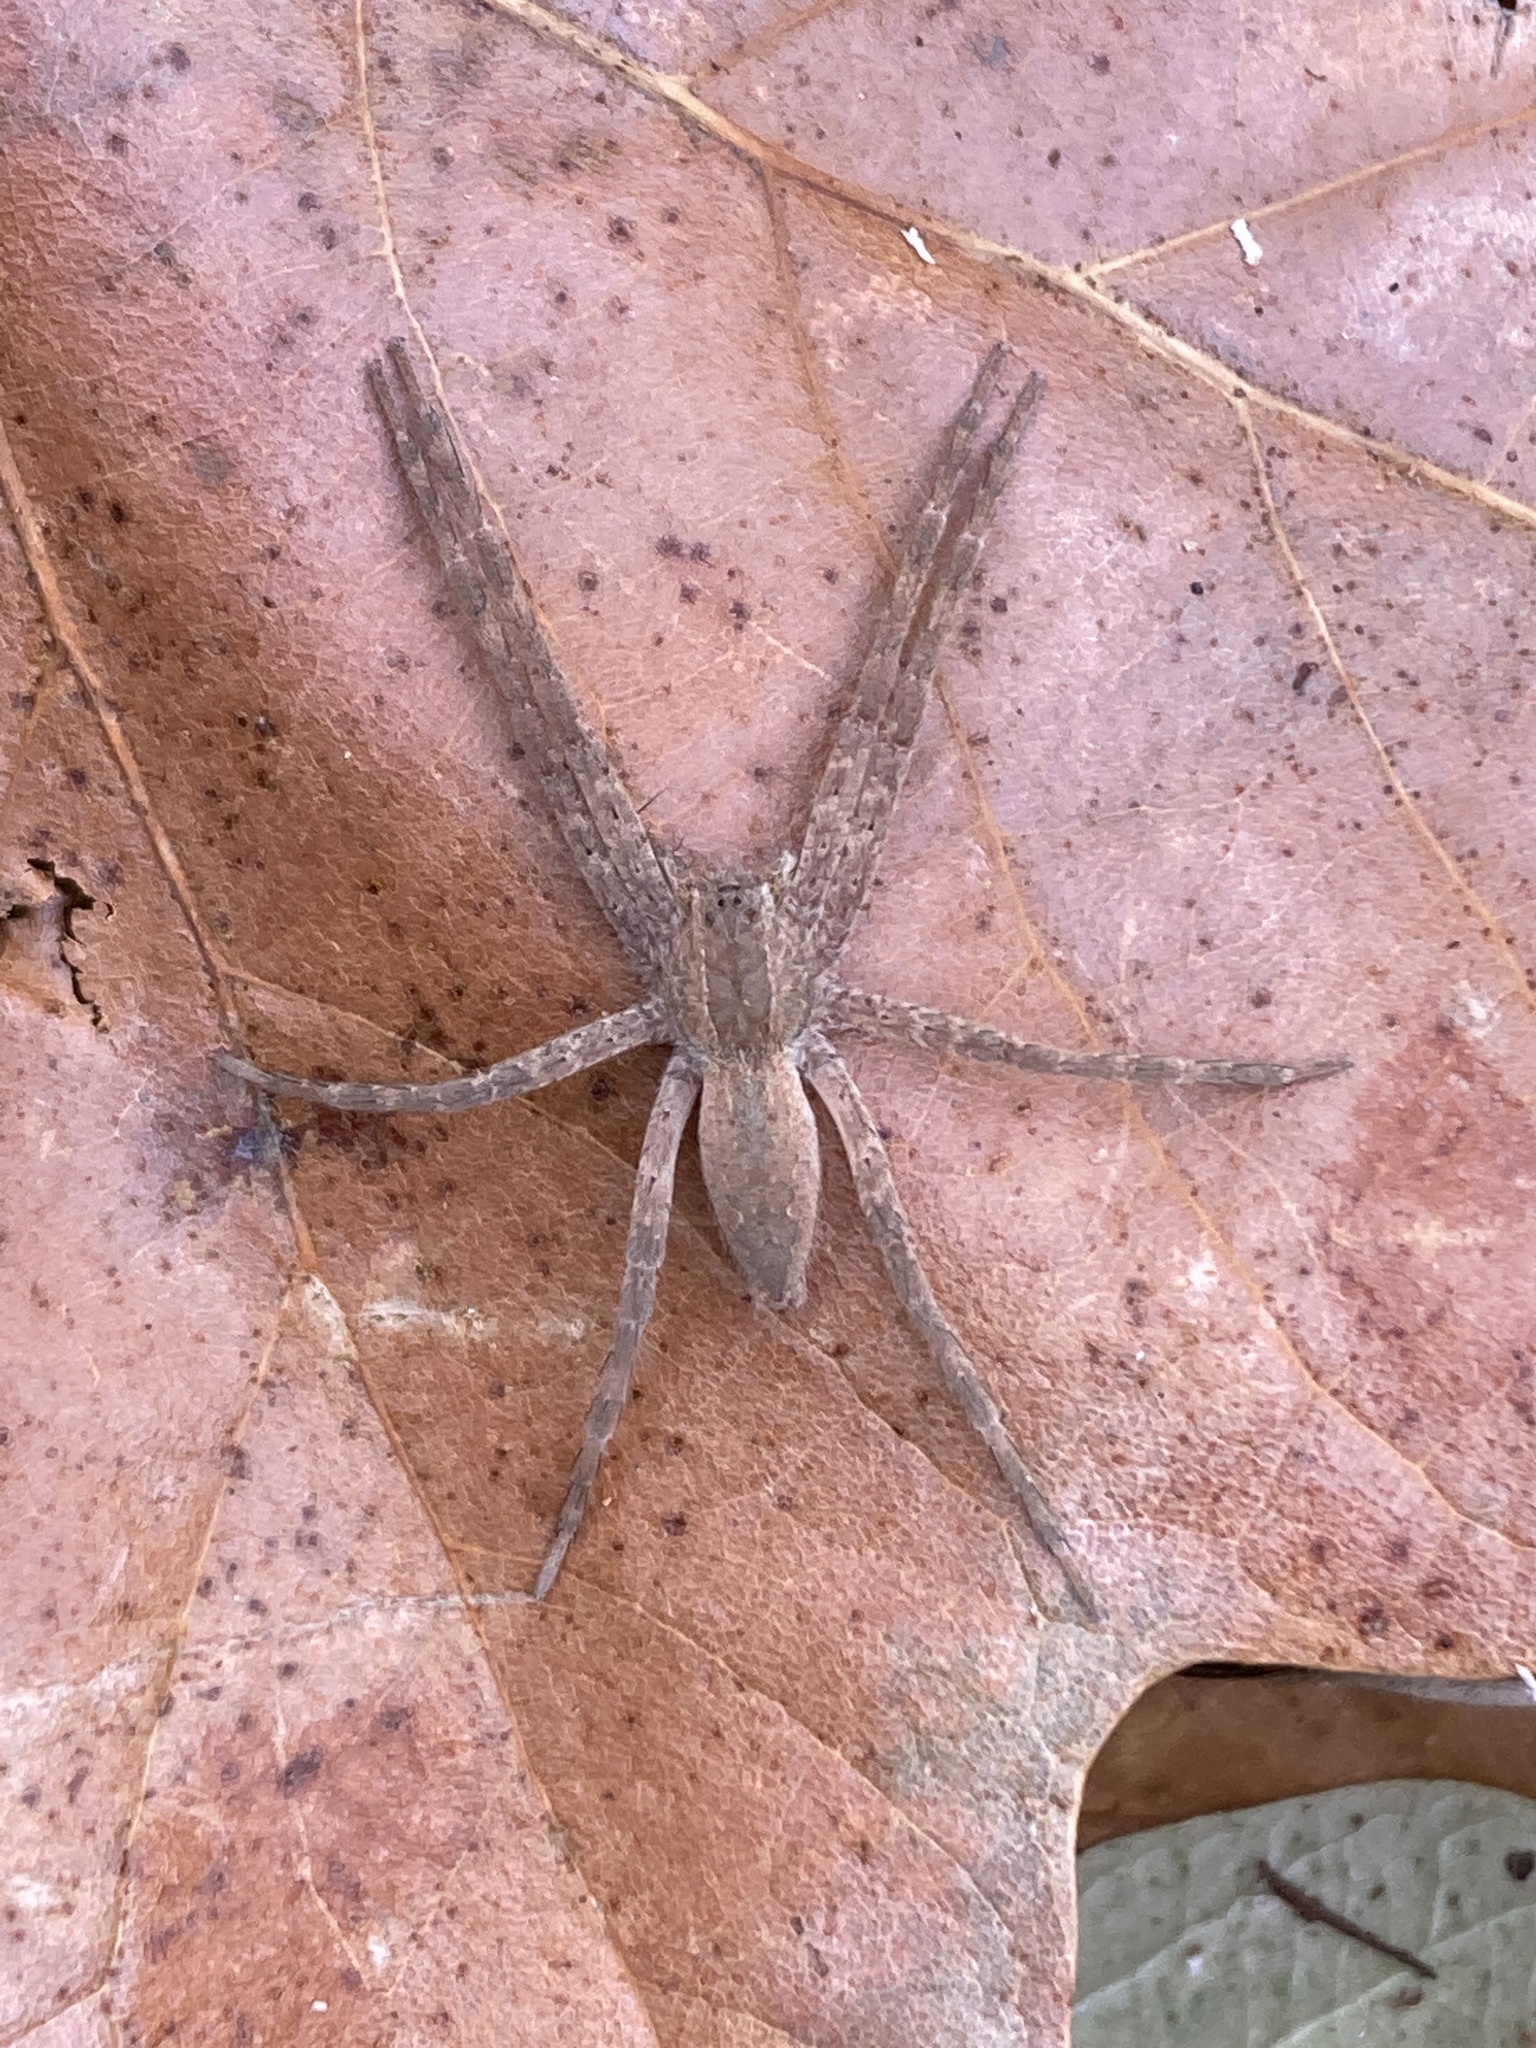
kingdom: Animalia
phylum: Arthropoda
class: Arachnida
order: Araneae
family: Pisauridae
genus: Pisaurina
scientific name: Pisaurina mira
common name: American nursery web spider
